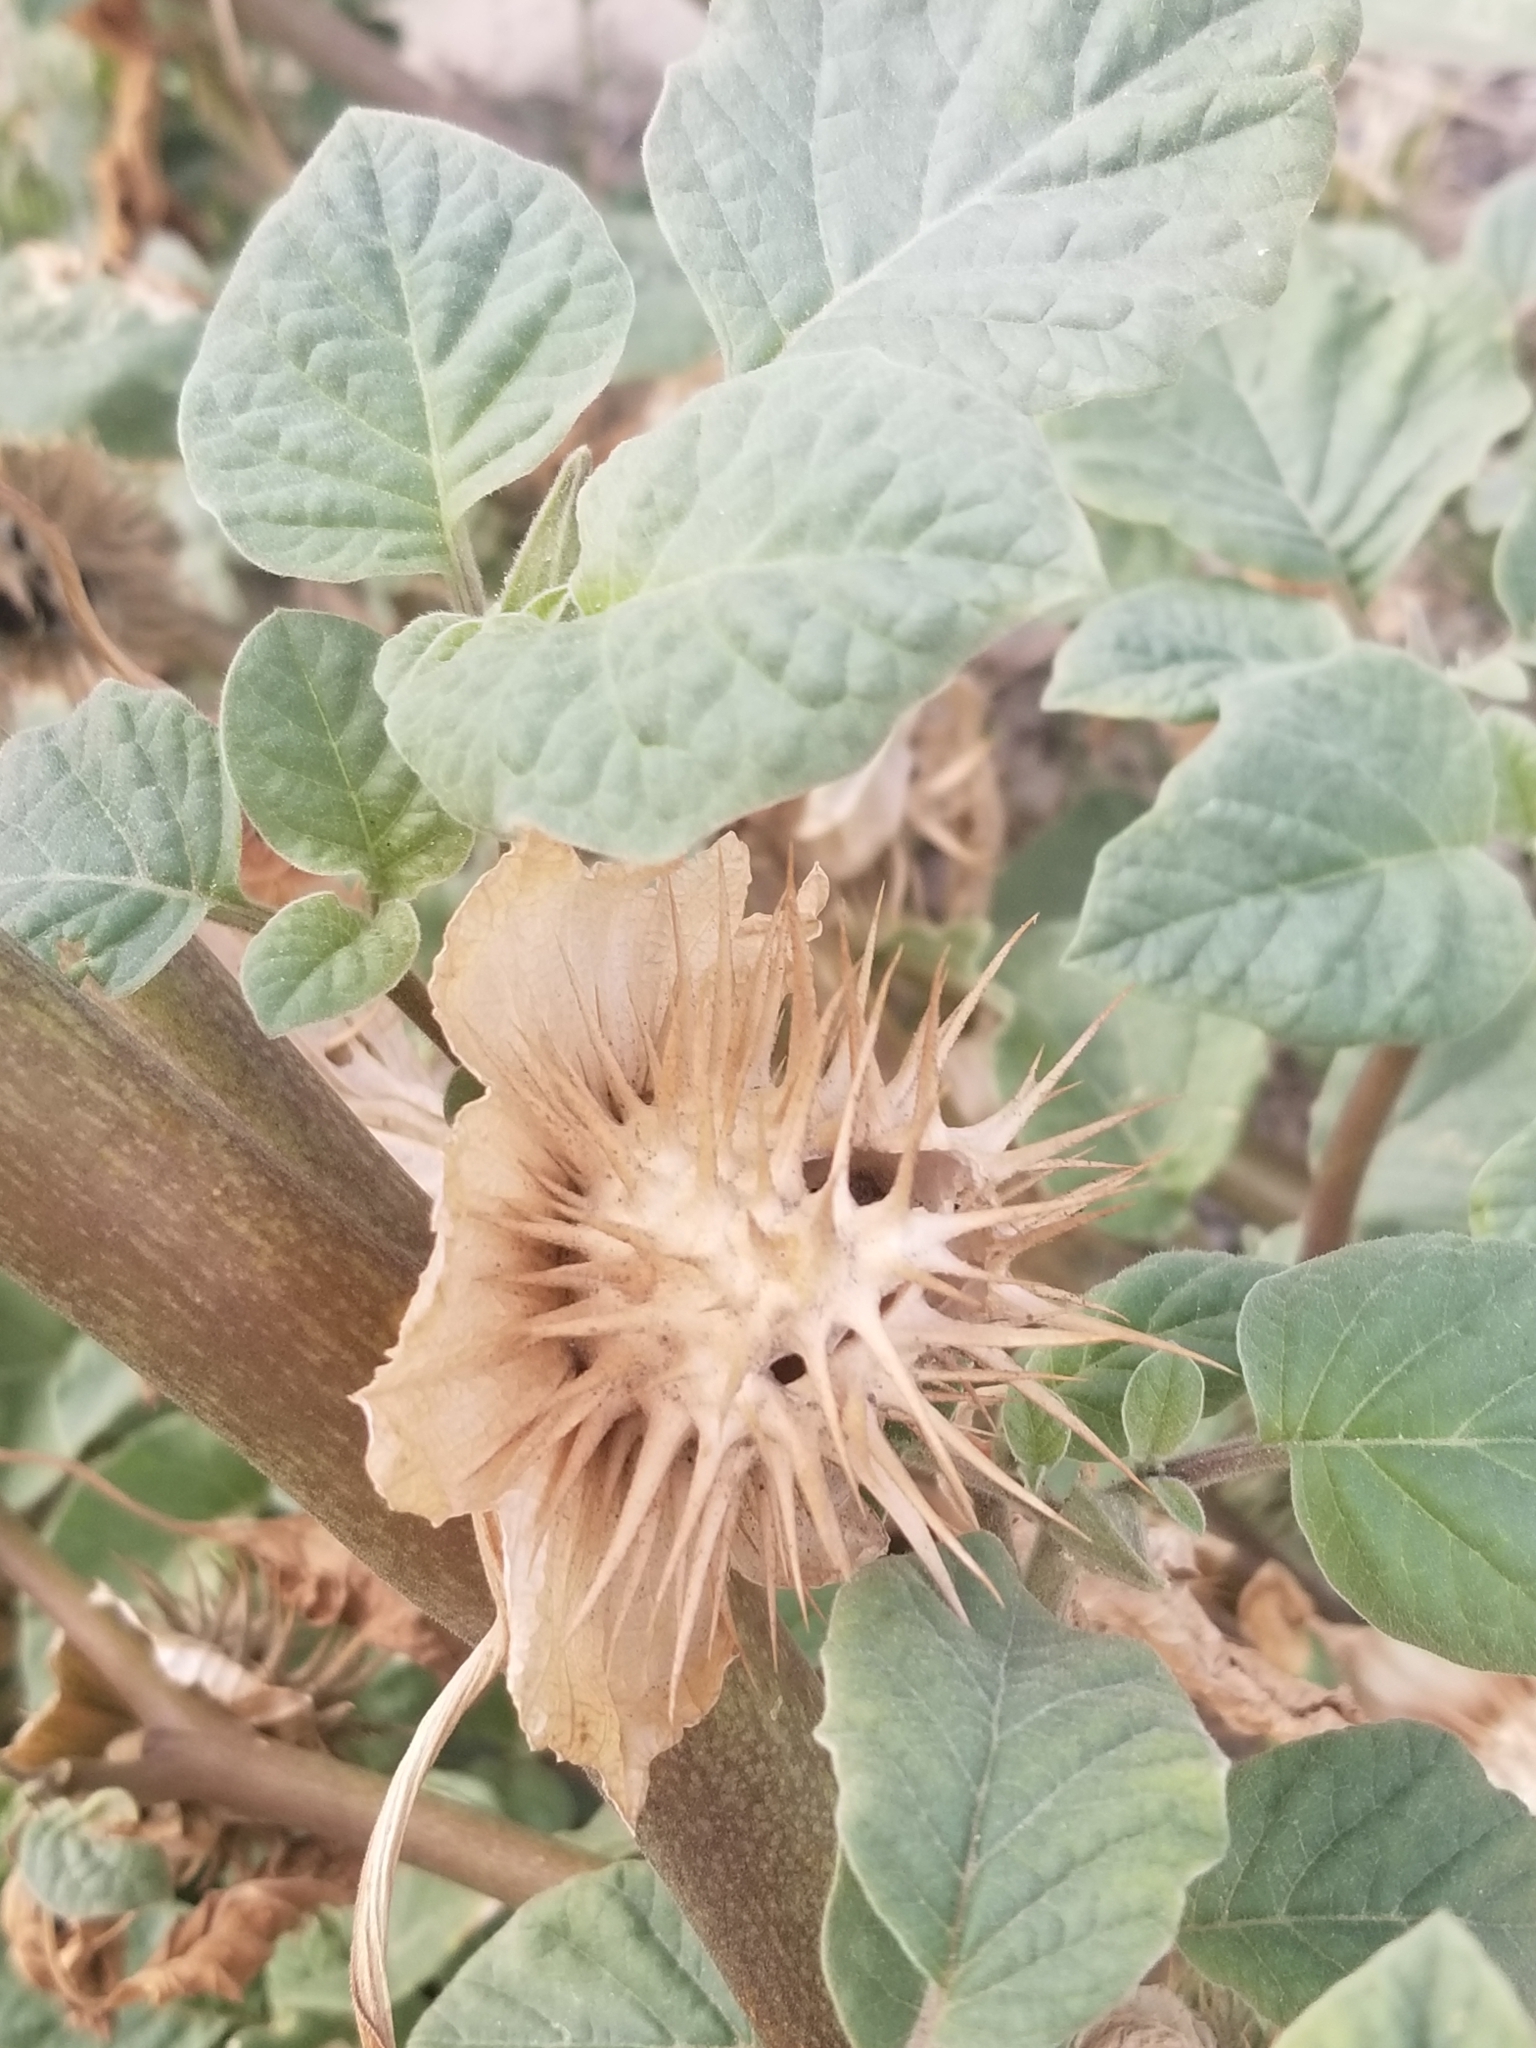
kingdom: Plantae
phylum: Tracheophyta
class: Magnoliopsida
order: Solanales
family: Solanaceae
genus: Datura
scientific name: Datura discolor
